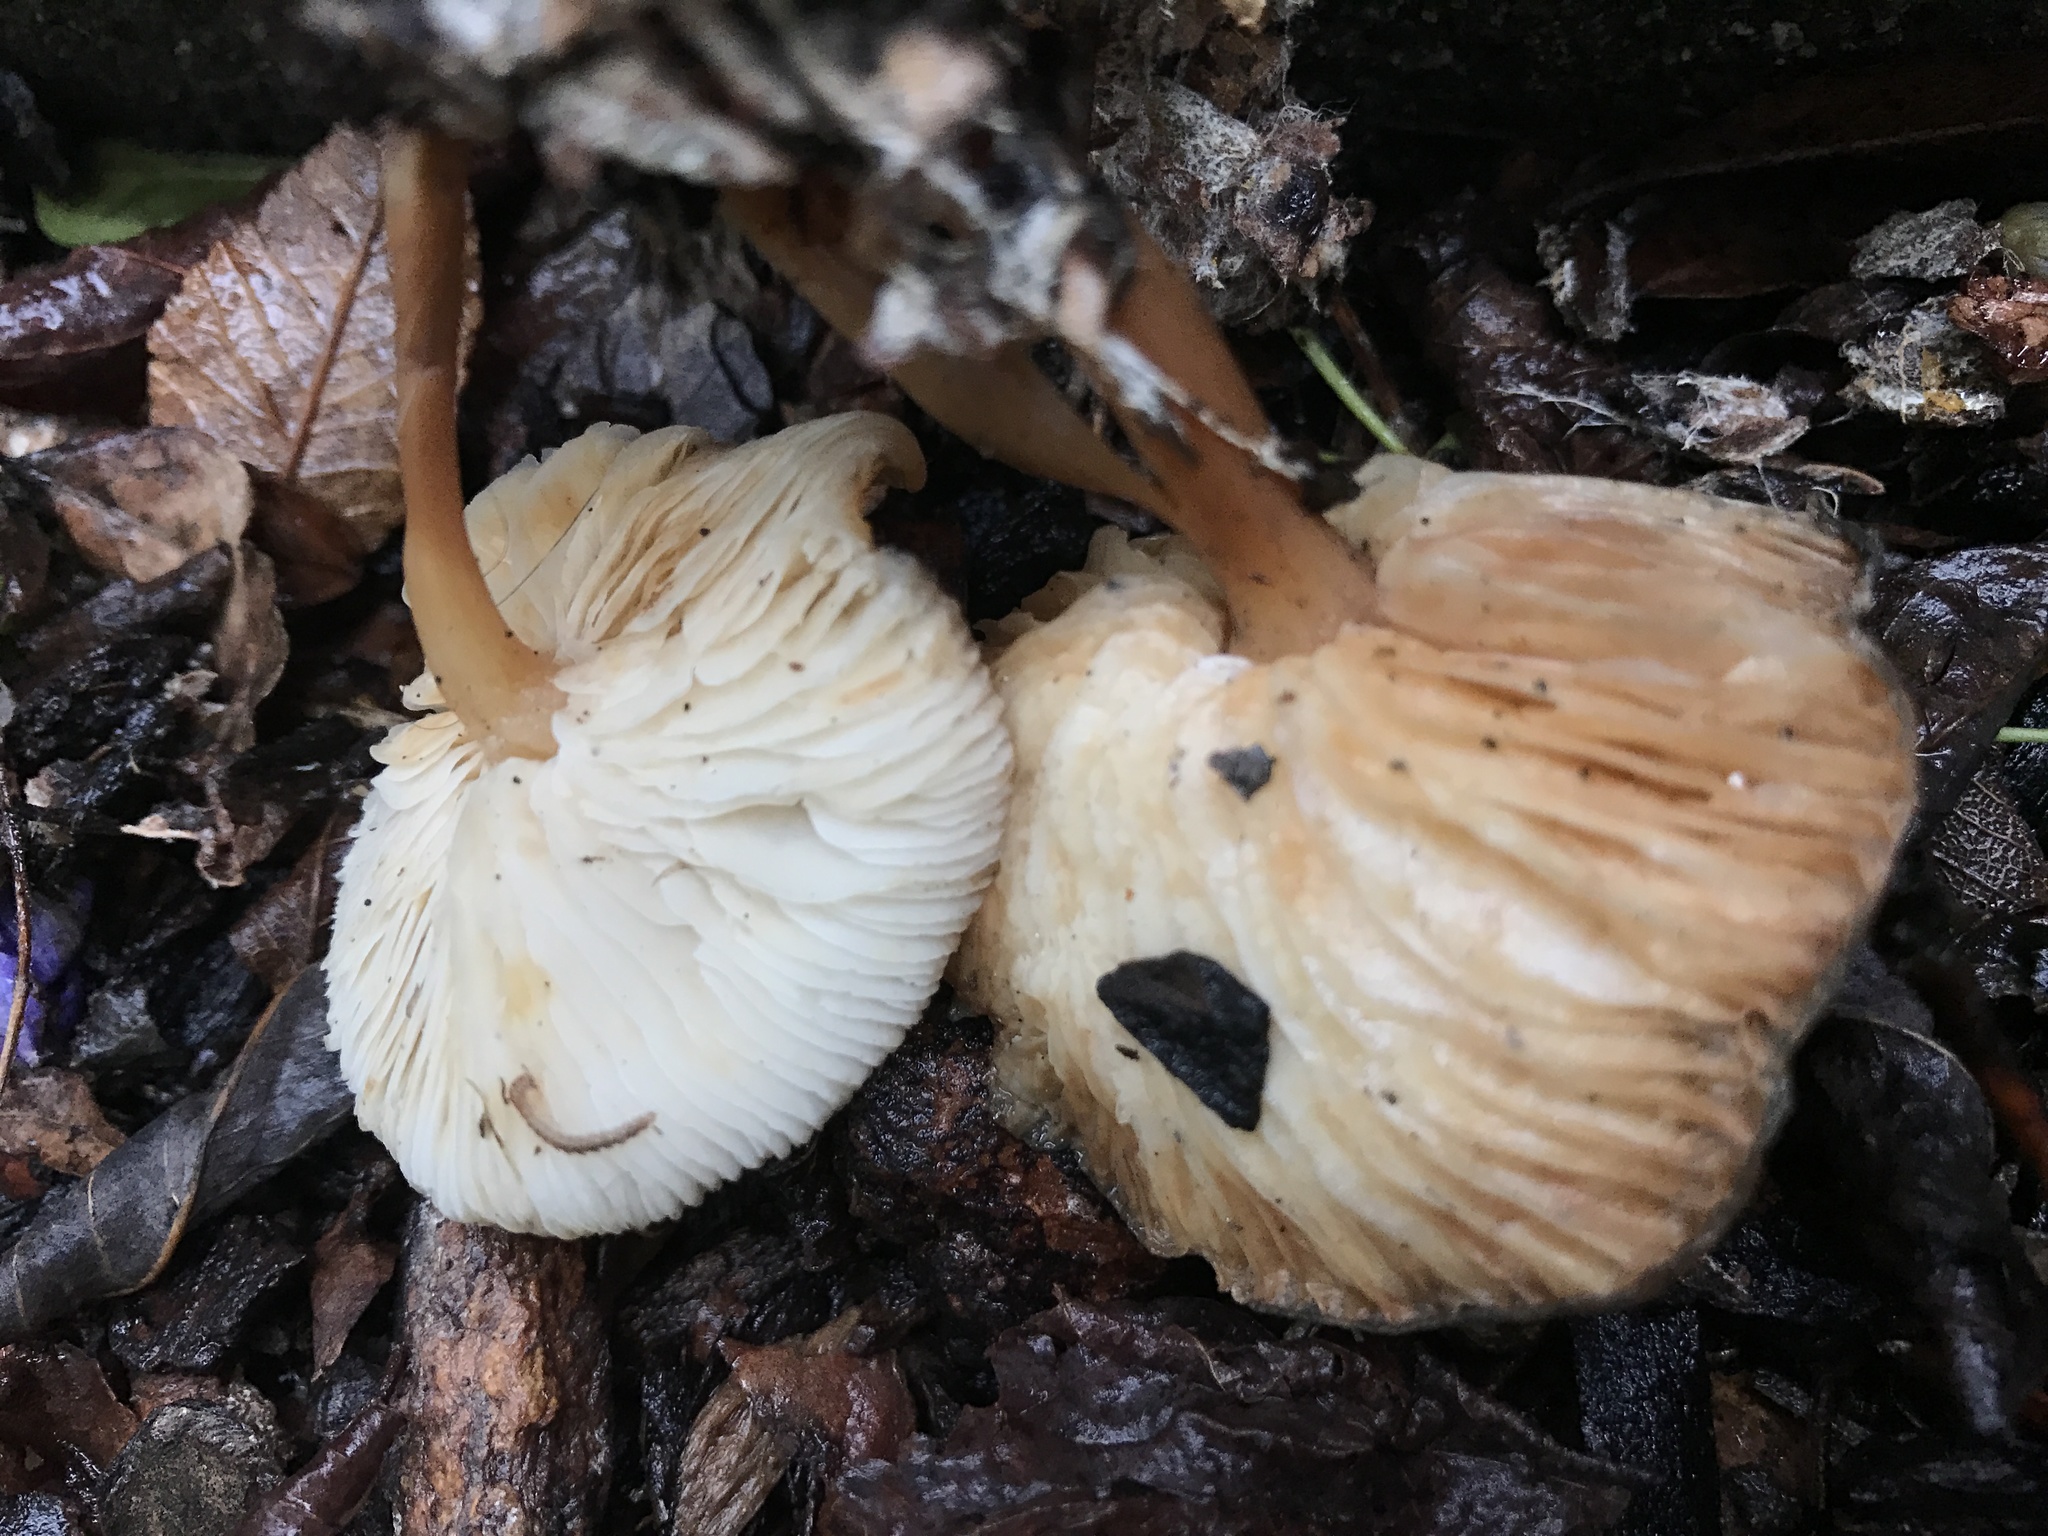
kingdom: Fungi
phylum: Basidiomycota
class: Agaricomycetes
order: Agaricales
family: Omphalotaceae
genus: Gymnopus
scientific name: Gymnopus dryophilus
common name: Penny top
